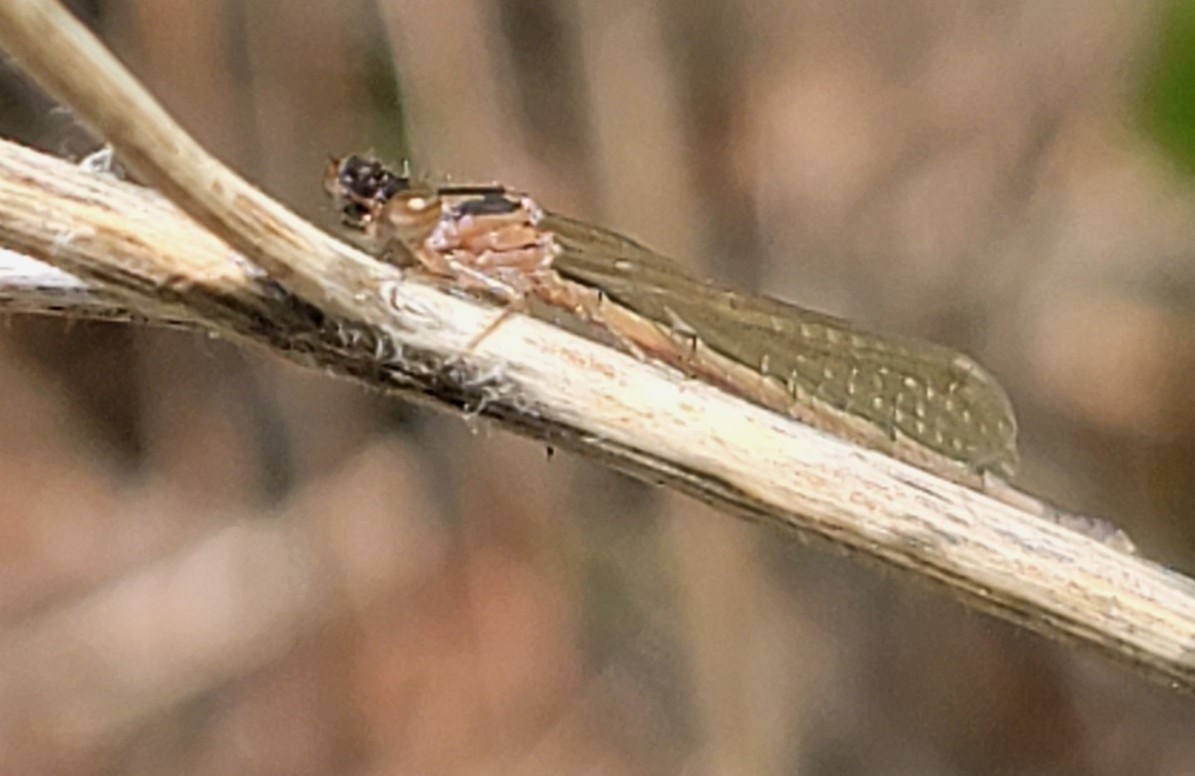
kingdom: Animalia
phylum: Arthropoda
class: Insecta
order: Odonata
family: Coenagrionidae
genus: Ischnura
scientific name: Ischnura posita
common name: Fragile forktail
